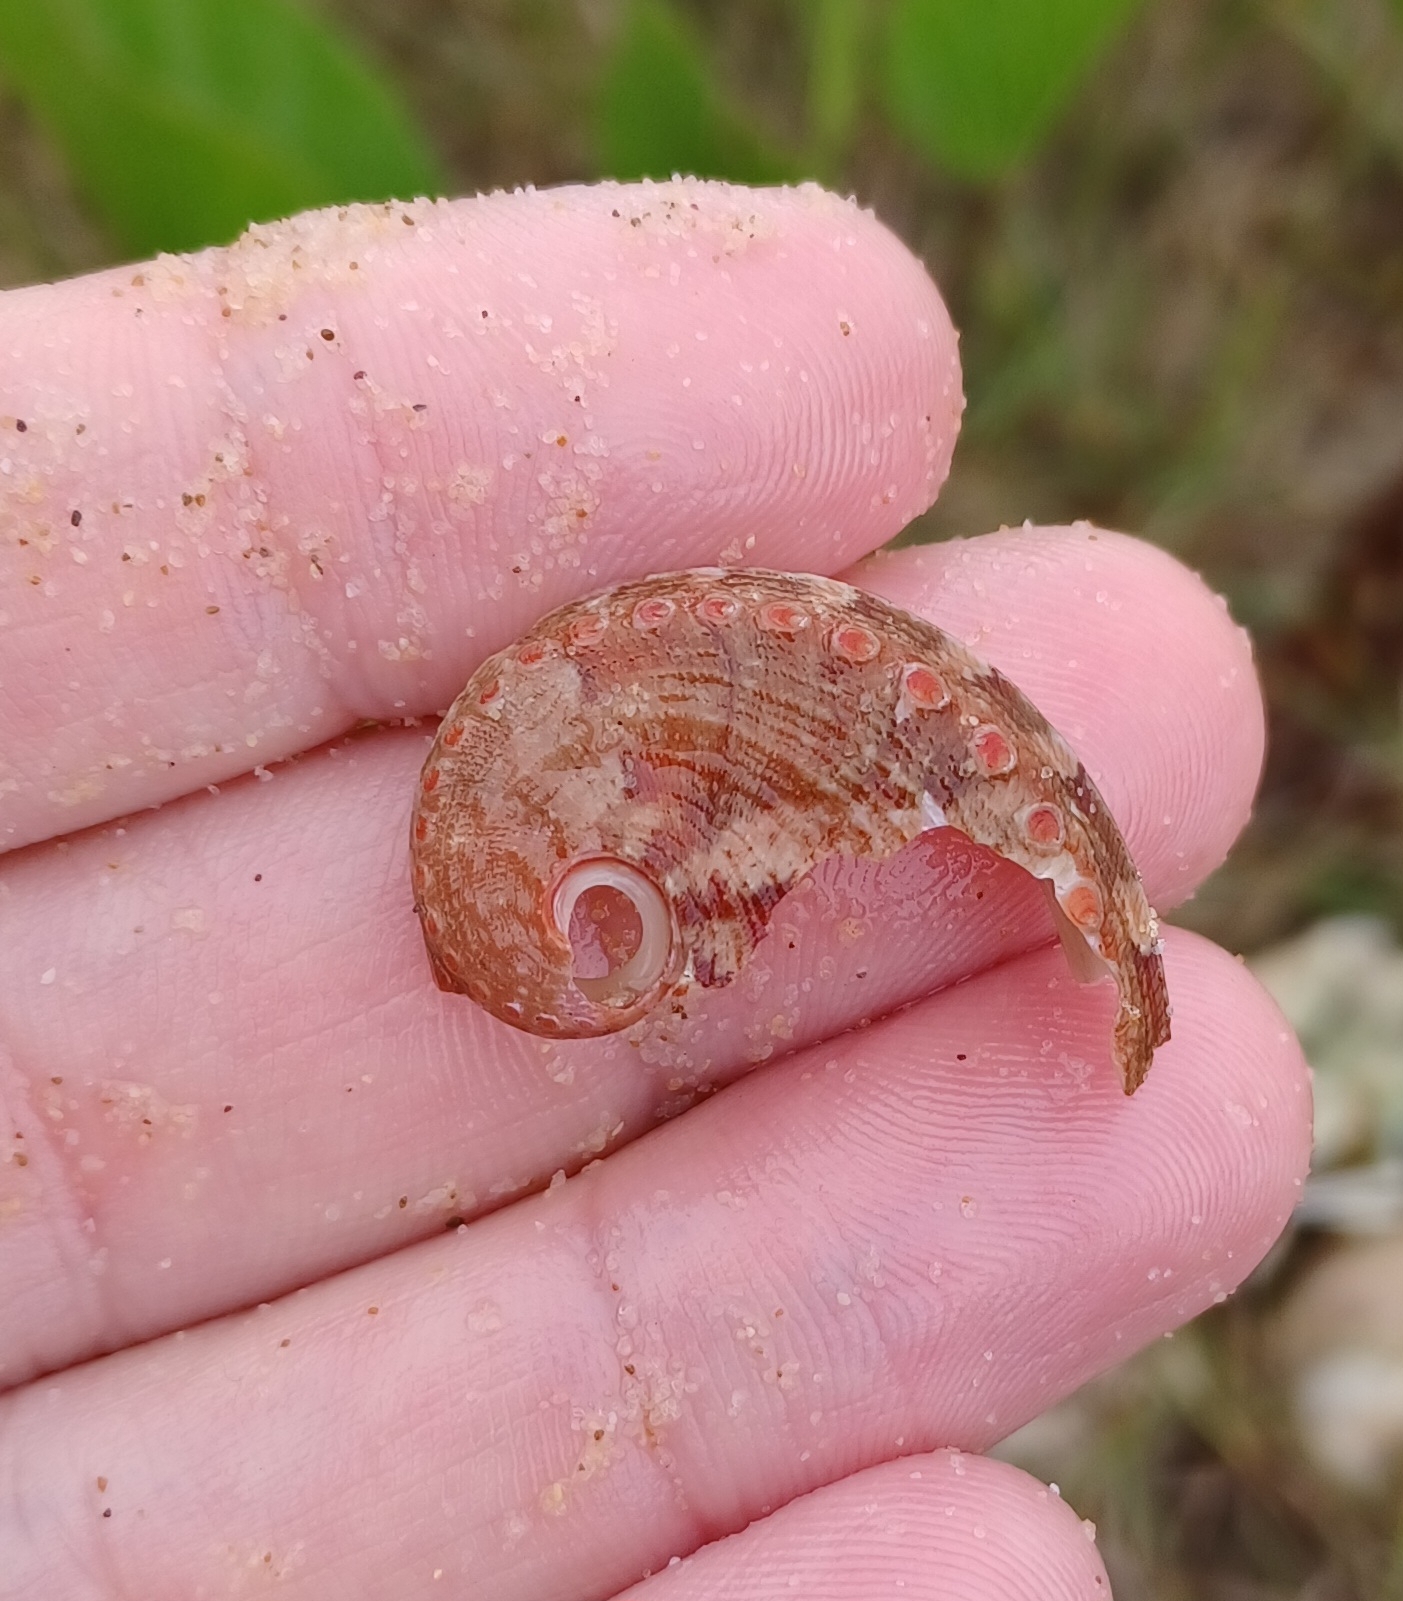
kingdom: Animalia
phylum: Mollusca
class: Gastropoda
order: Lepetellida
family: Haliotidae
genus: Haliotis
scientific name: Haliotis coccoradiata
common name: Reddish-rayed abalone
